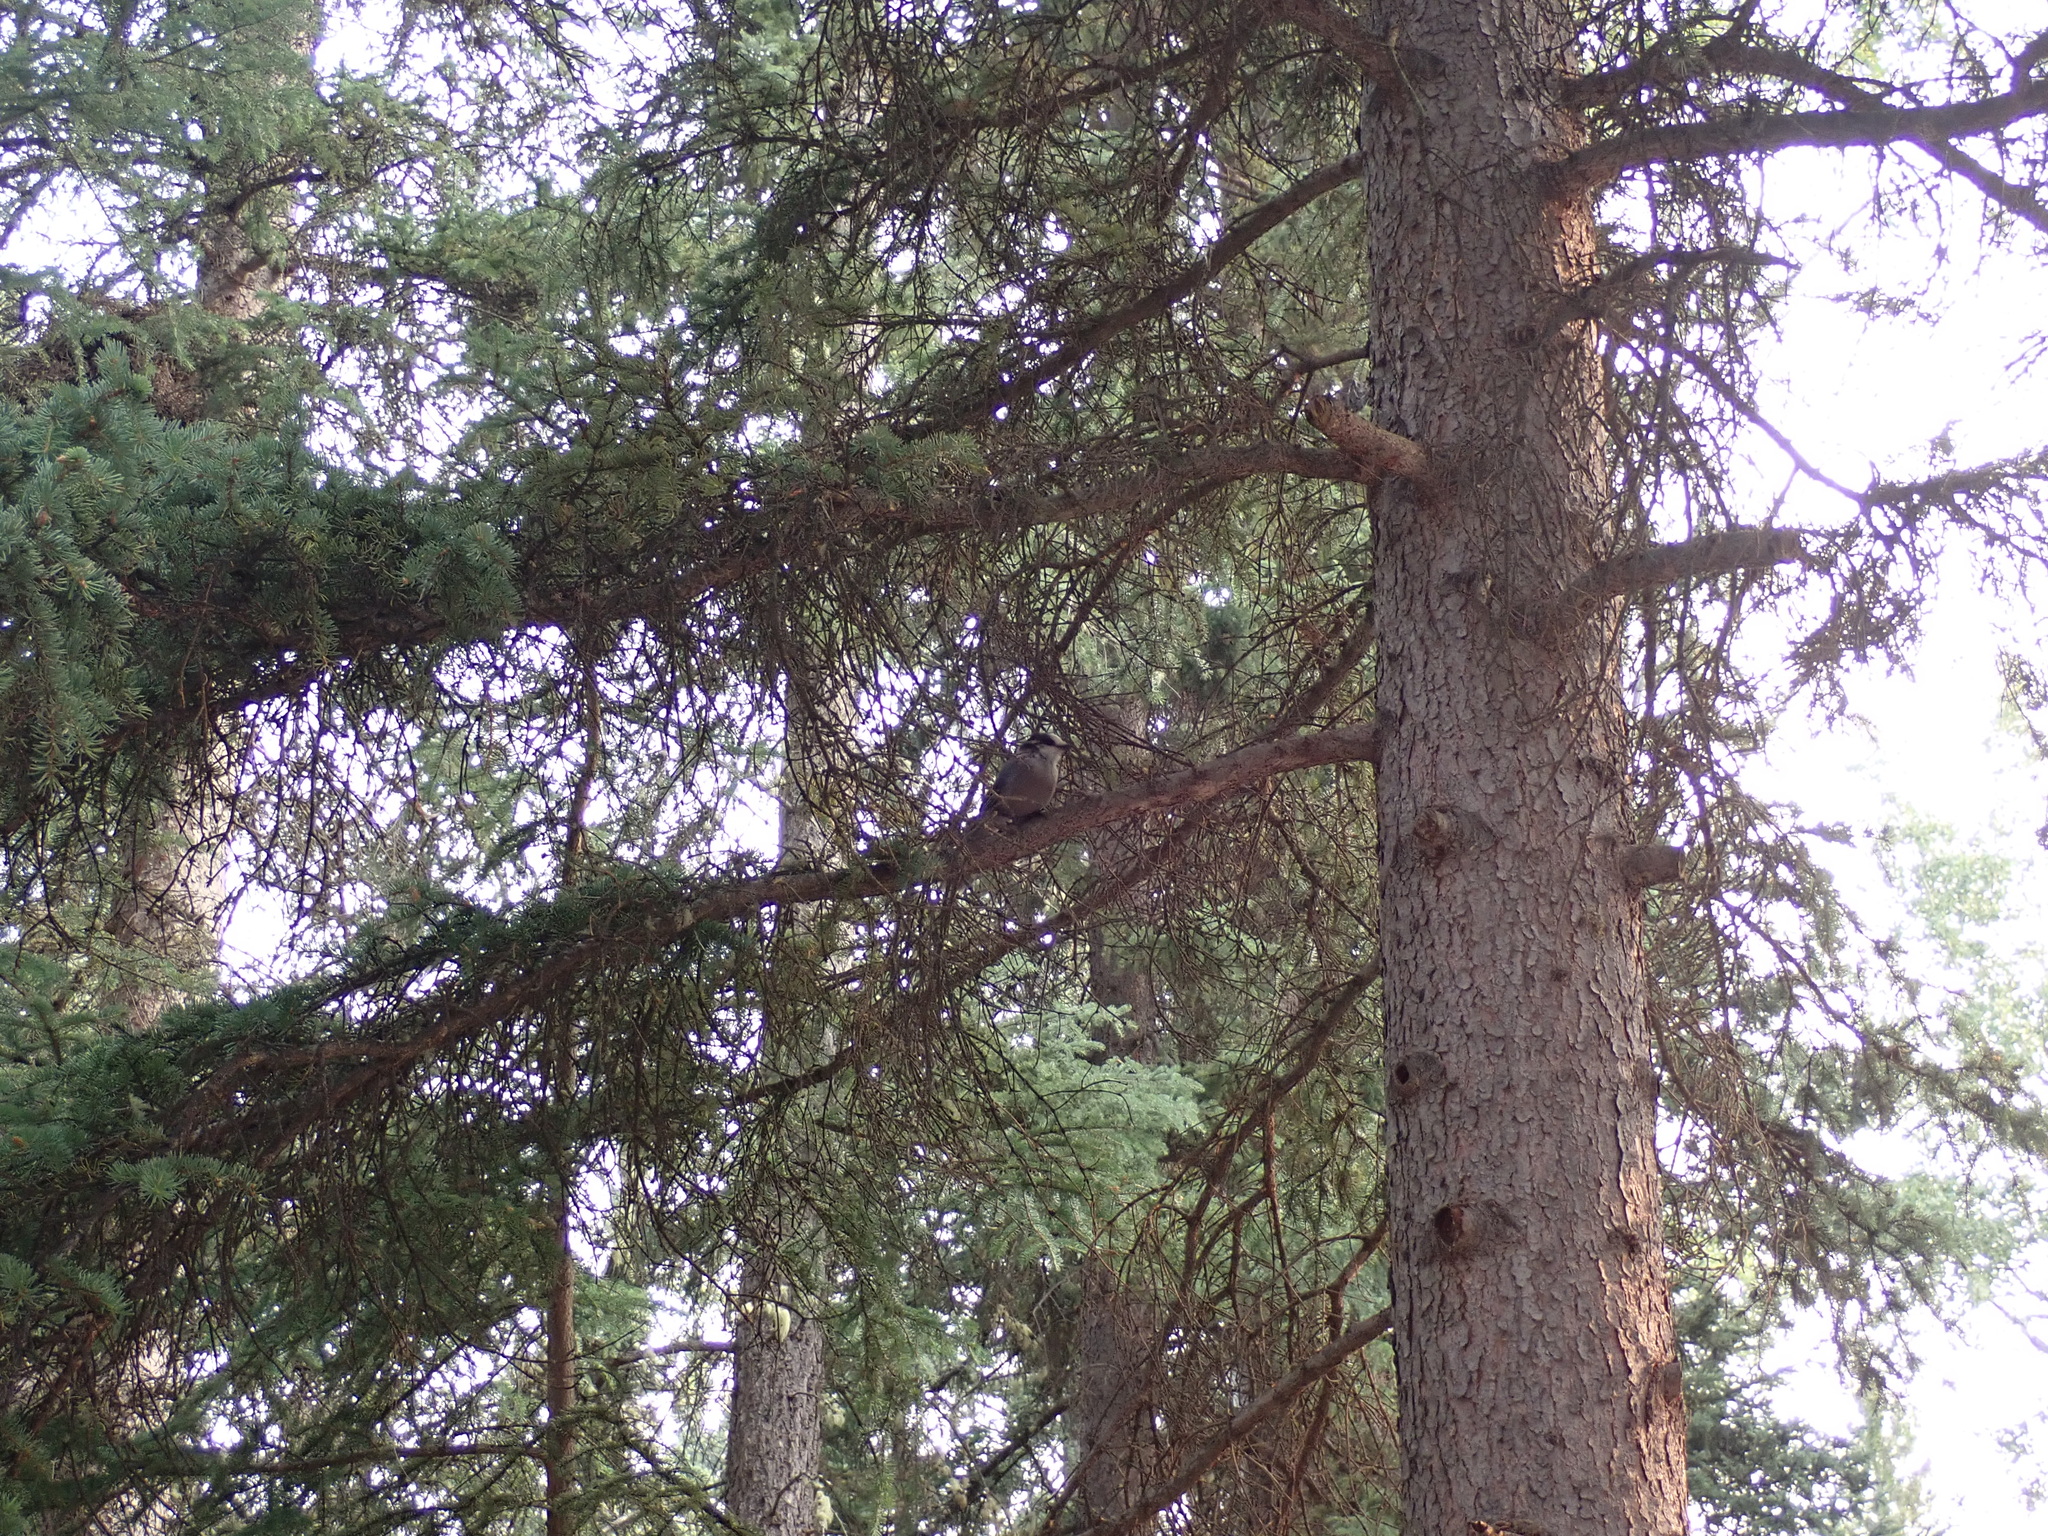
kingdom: Animalia
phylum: Chordata
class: Aves
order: Passeriformes
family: Corvidae
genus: Perisoreus
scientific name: Perisoreus canadensis
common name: Gray jay
